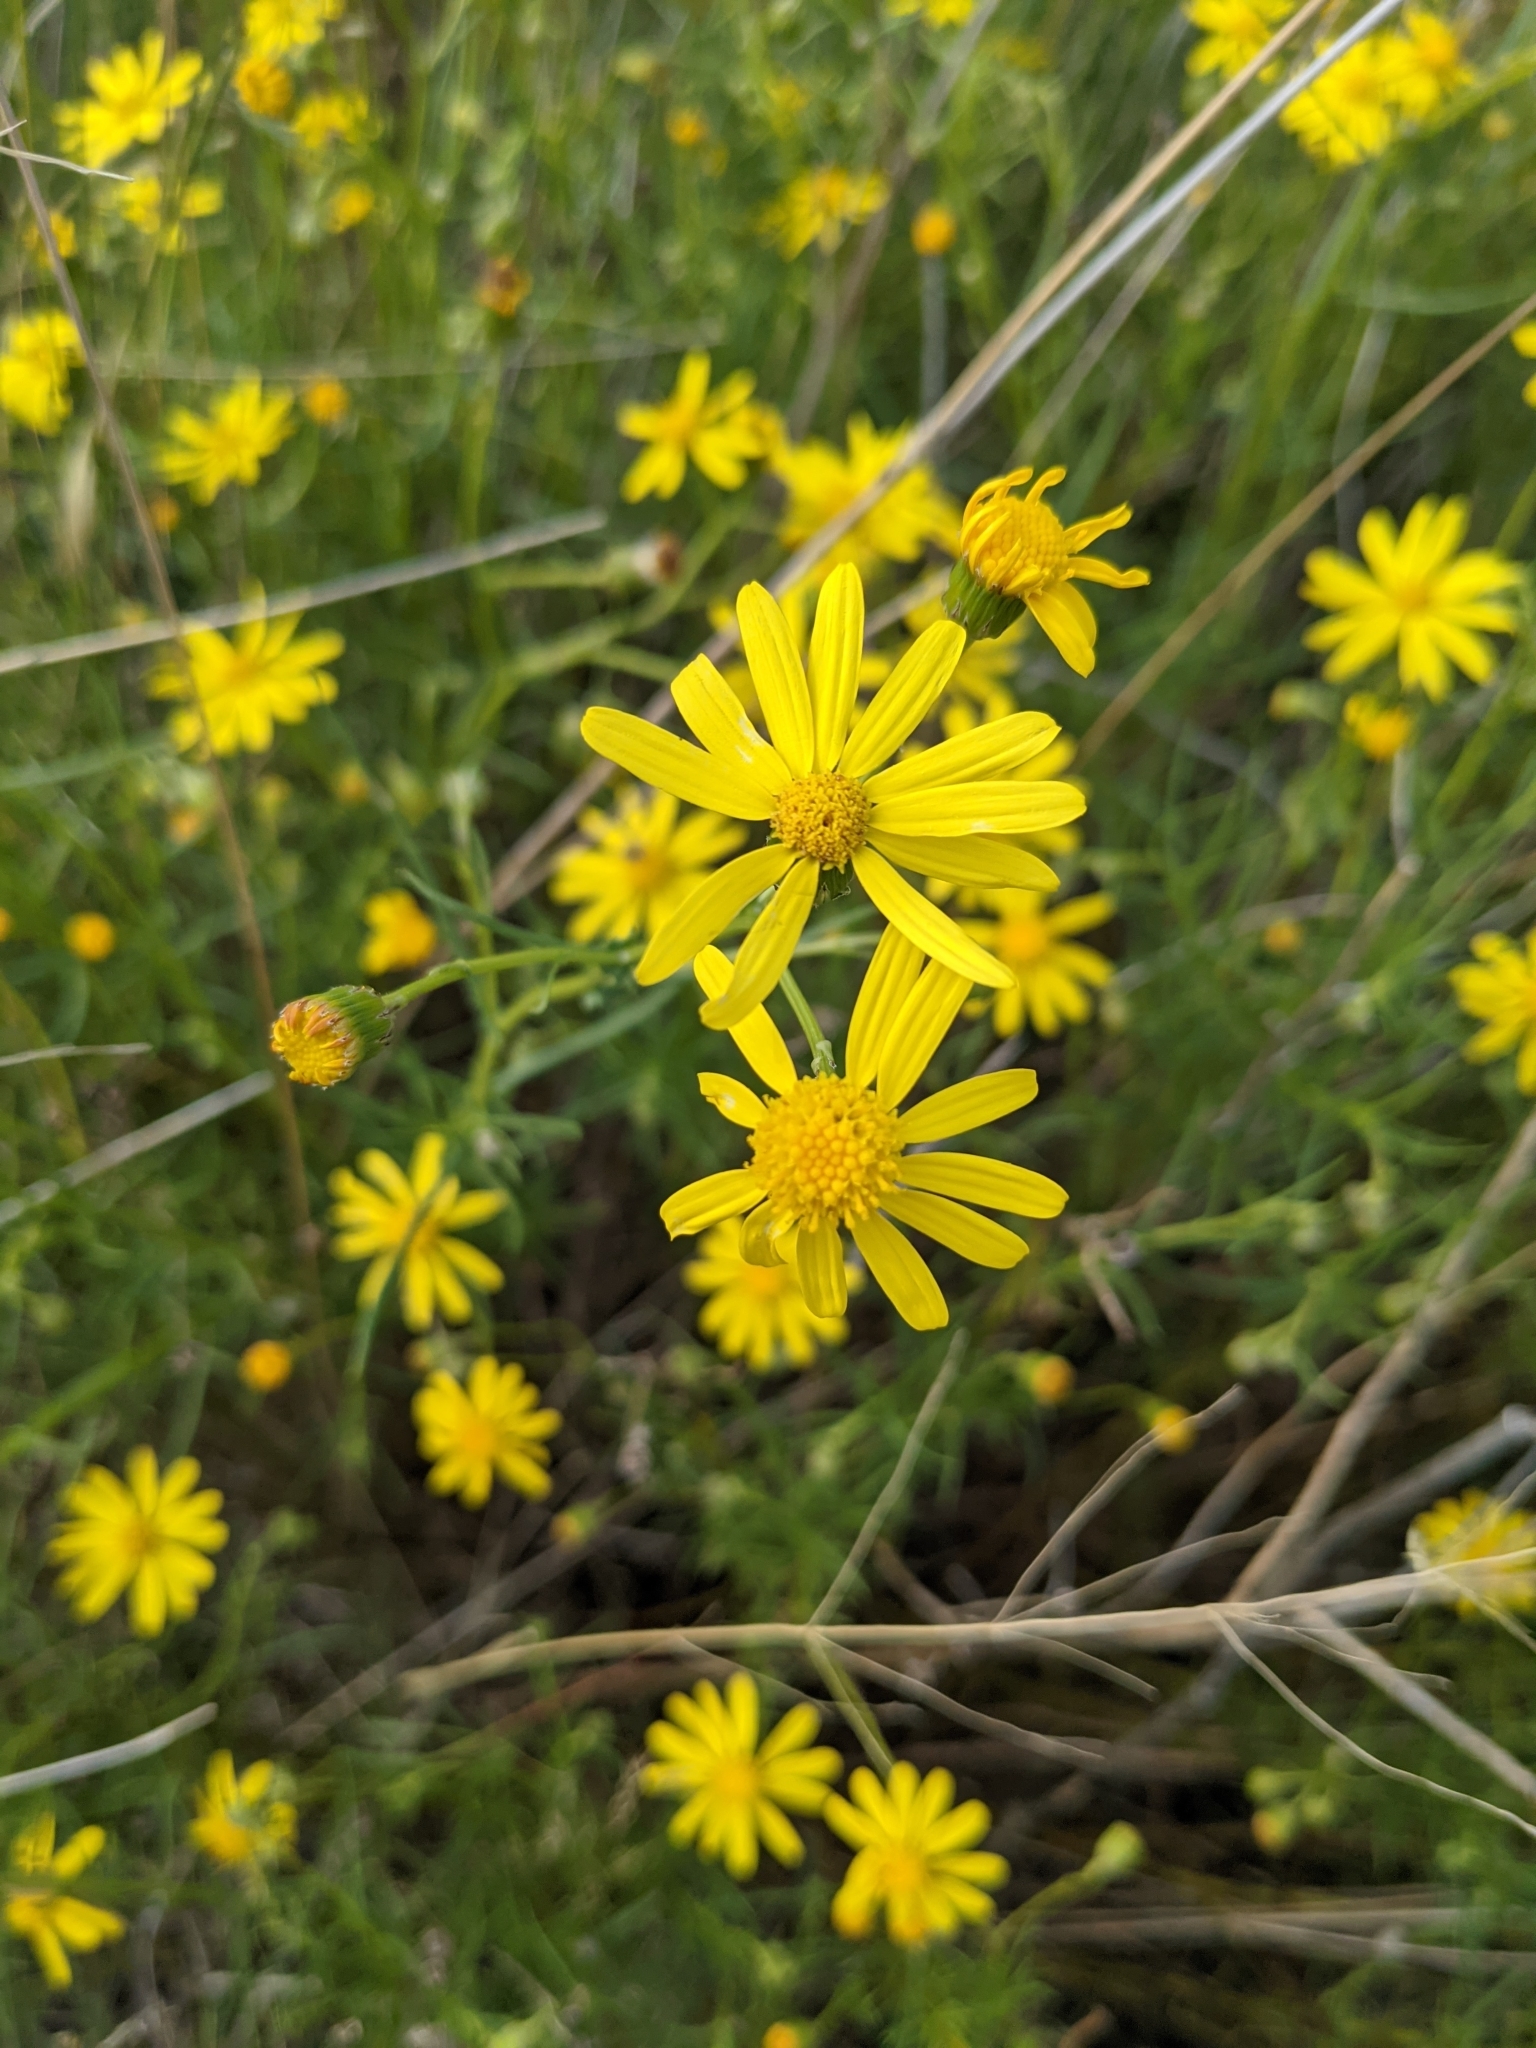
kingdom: Plantae
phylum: Tracheophyta
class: Magnoliopsida
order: Asterales
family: Asteraceae
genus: Senecio
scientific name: Senecio inaequidens
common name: Narrow-leaved ragwort
